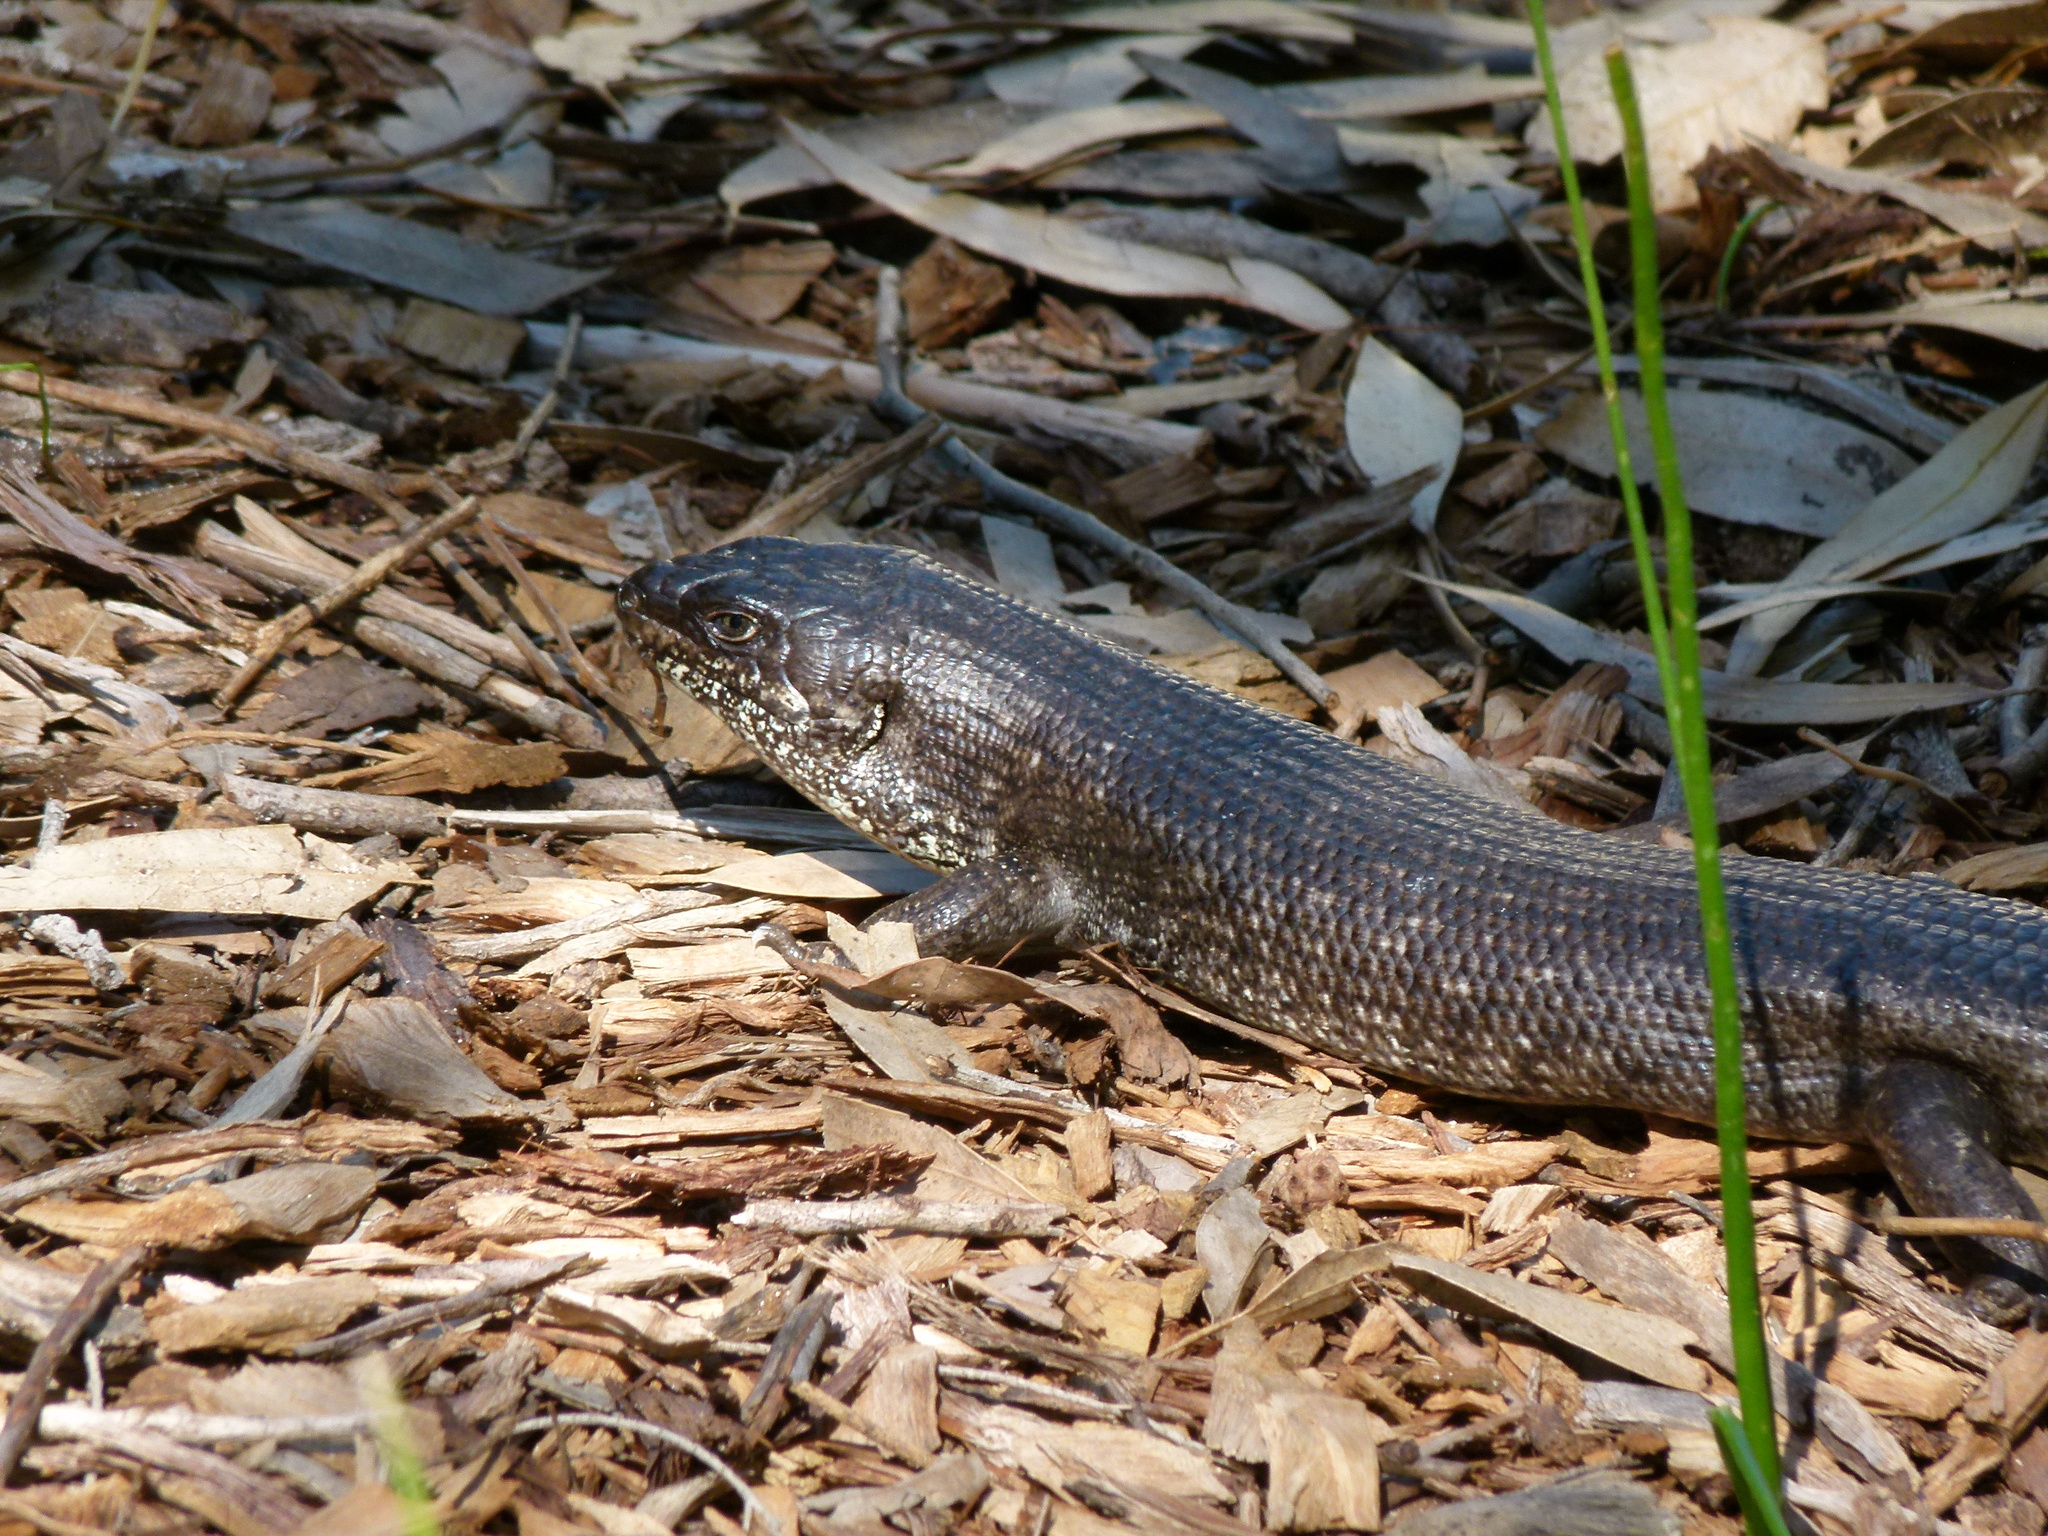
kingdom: Animalia
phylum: Chordata
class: Squamata
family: Scincidae
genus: Egernia
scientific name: Egernia kingii
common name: King's skink
